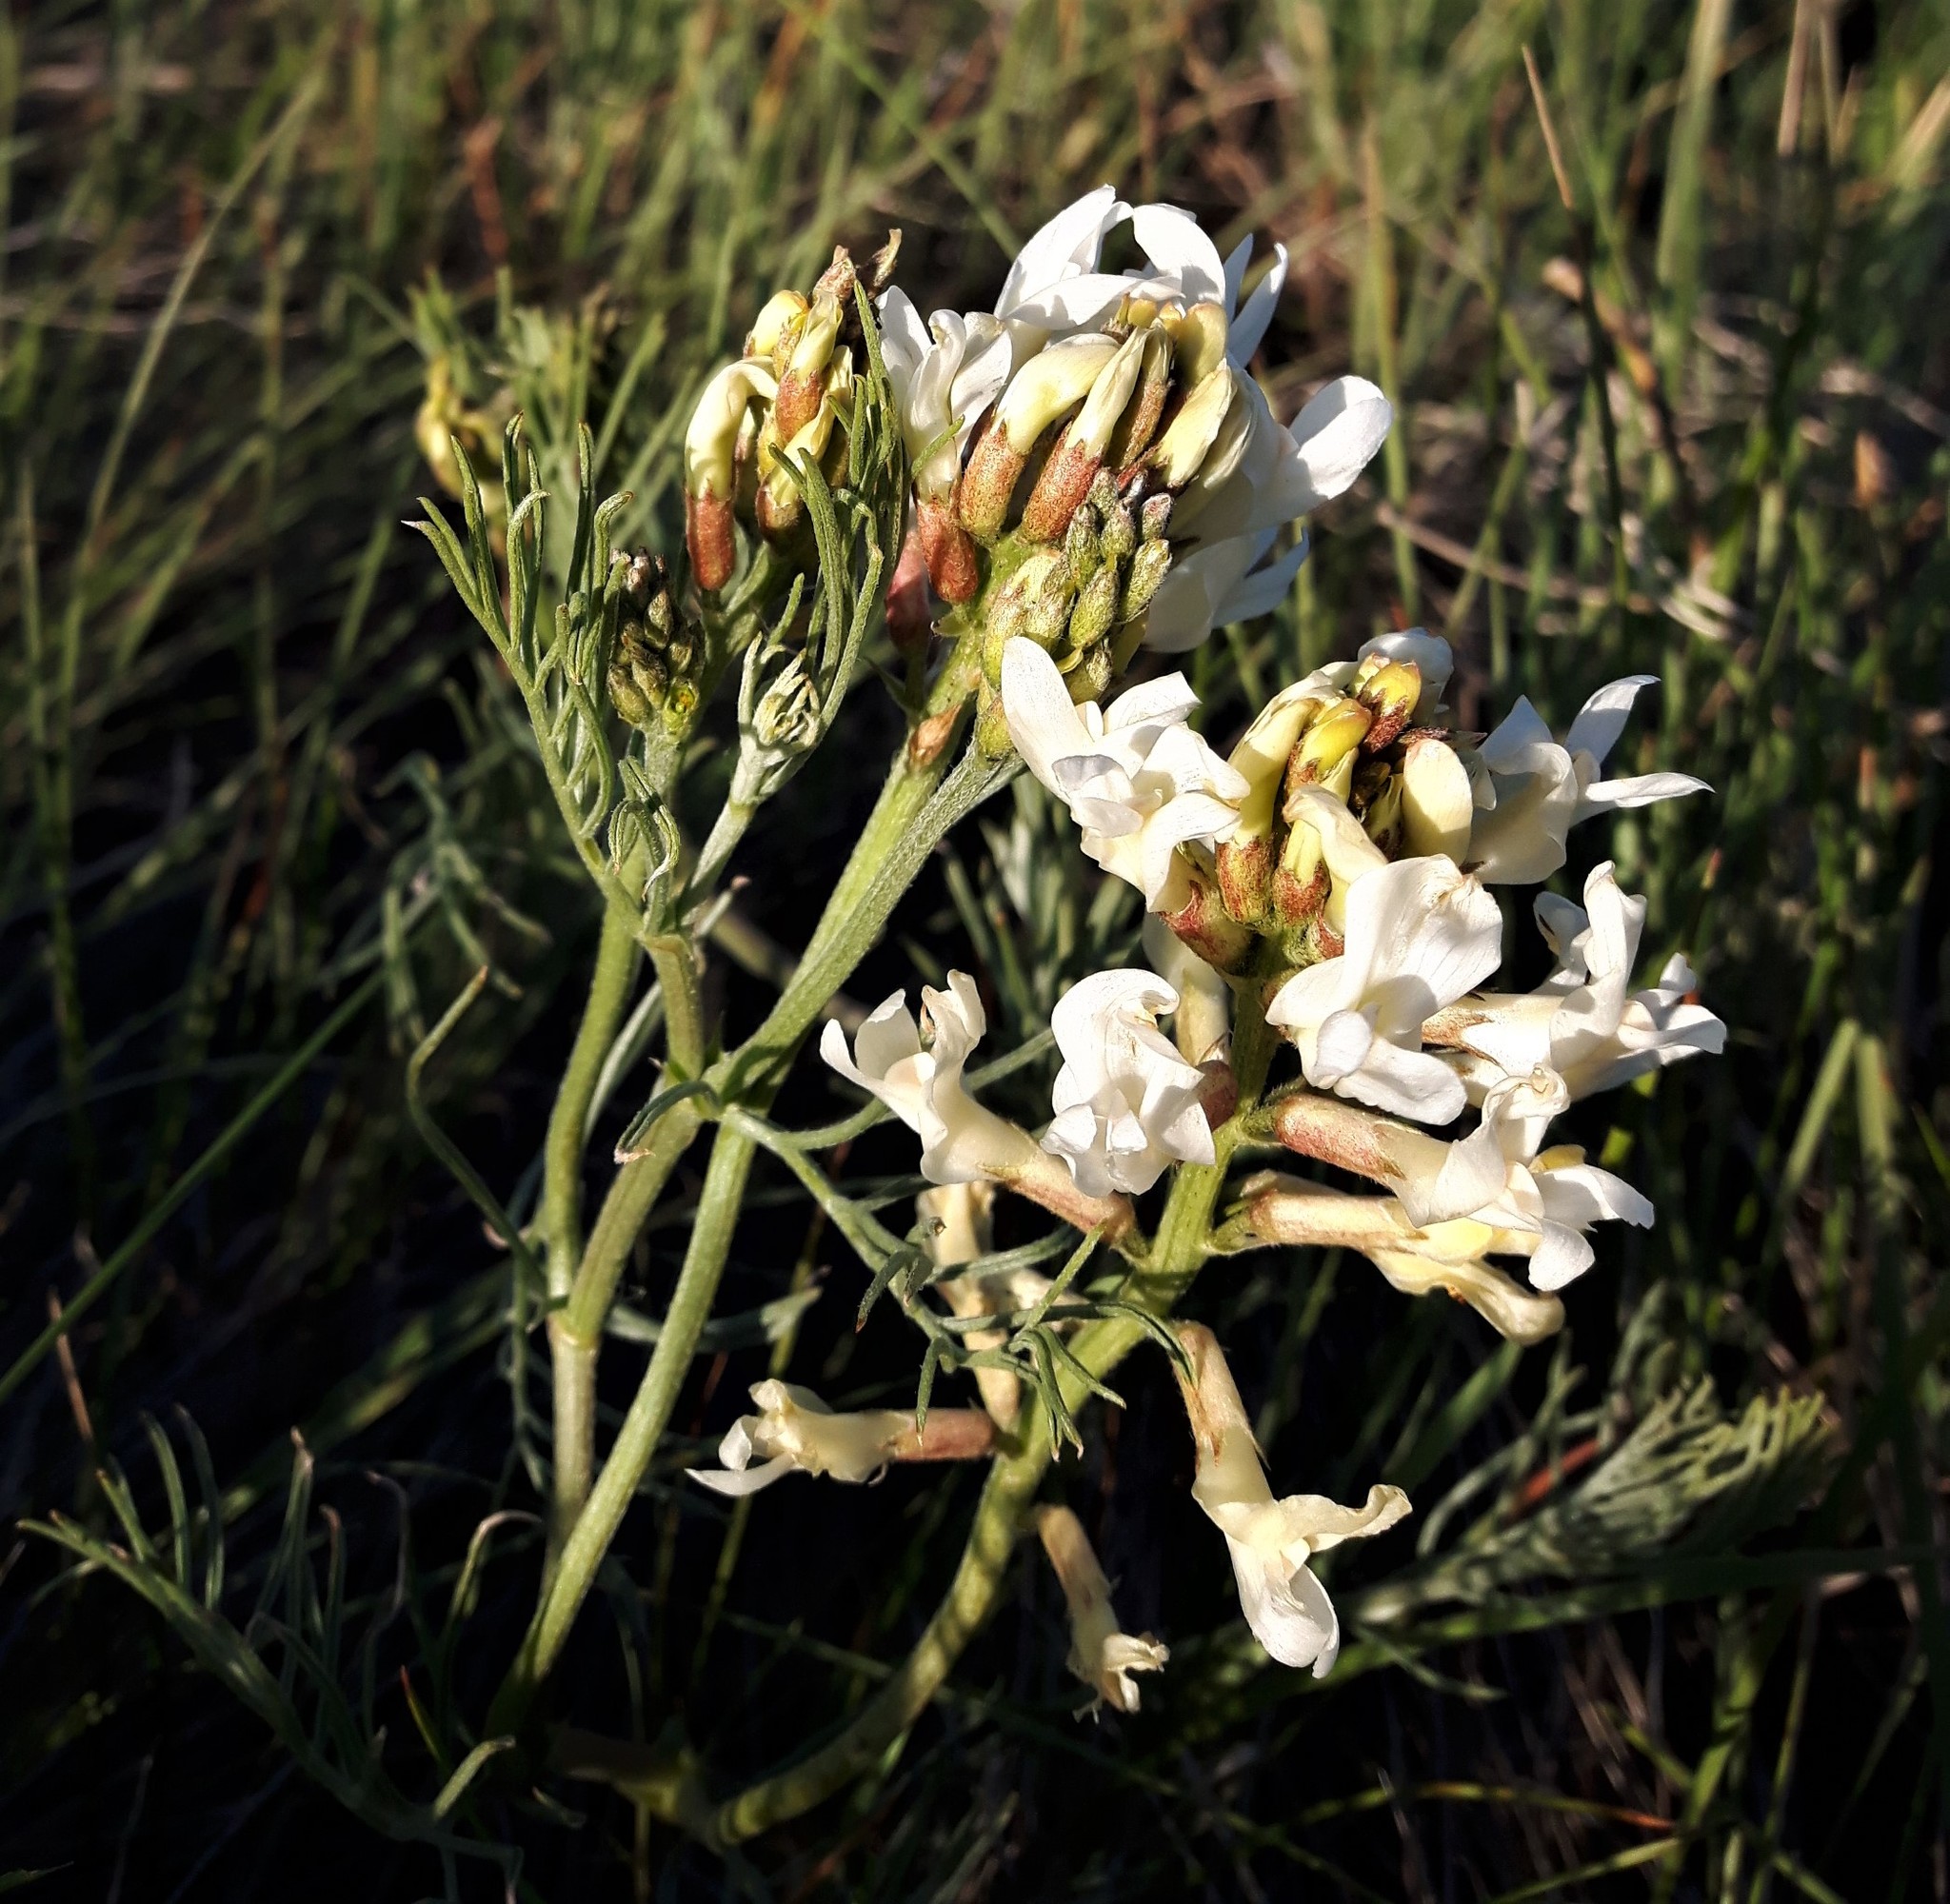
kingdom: Plantae
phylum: Tracheophyta
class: Magnoliopsida
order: Fabales
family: Fabaceae
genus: Astragalus
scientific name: Astragalus pectinatus
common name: Tine-leaf milk-vetch
